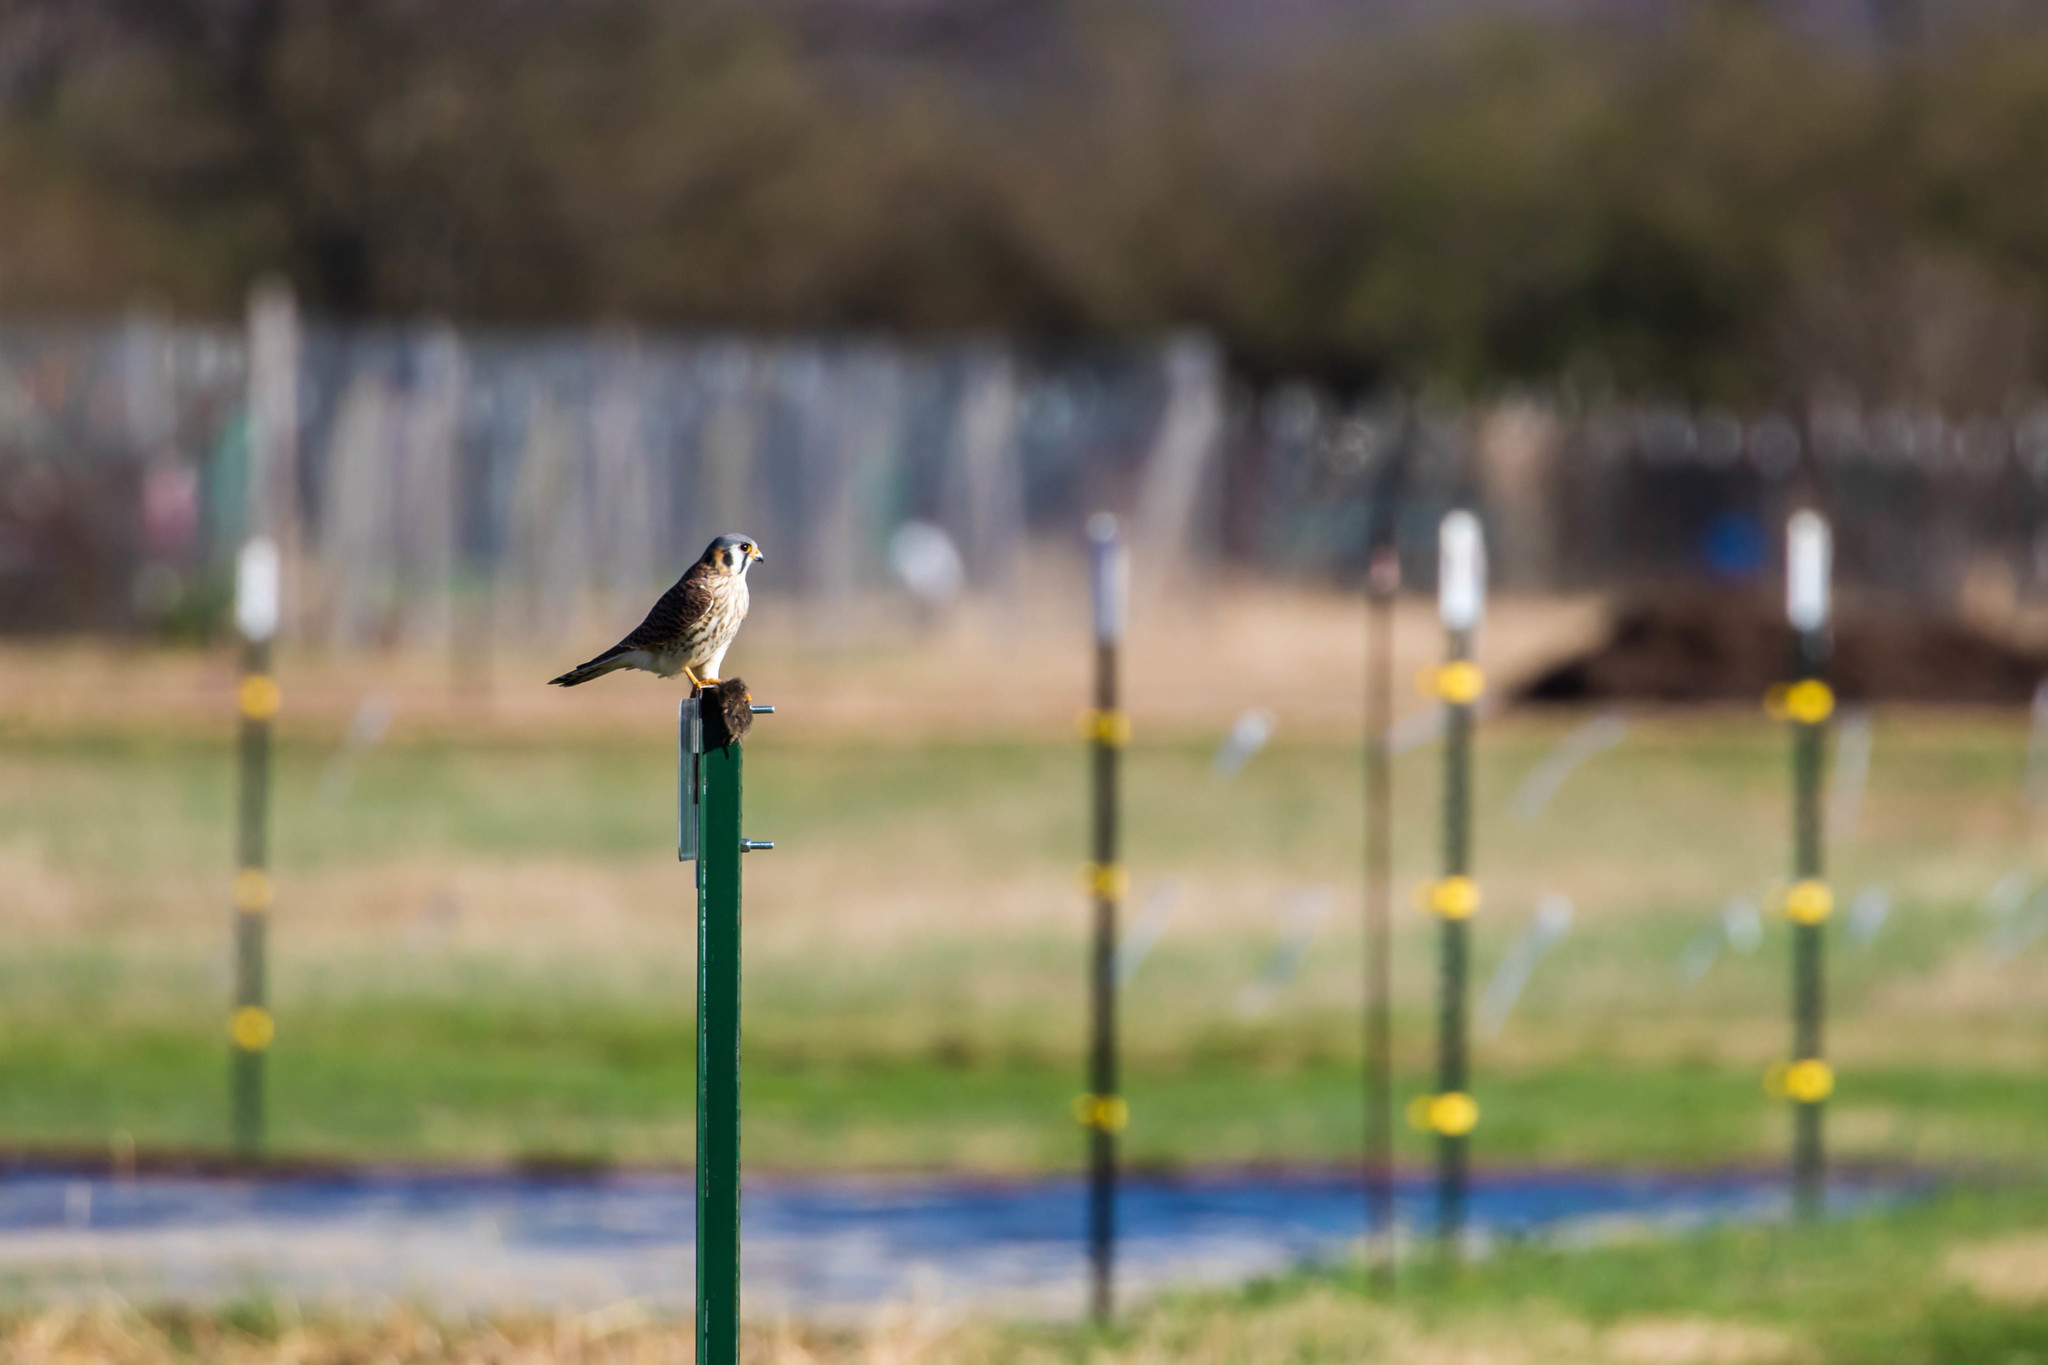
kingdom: Animalia
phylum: Chordata
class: Aves
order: Falconiformes
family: Falconidae
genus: Falco
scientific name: Falco sparverius
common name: American kestrel
